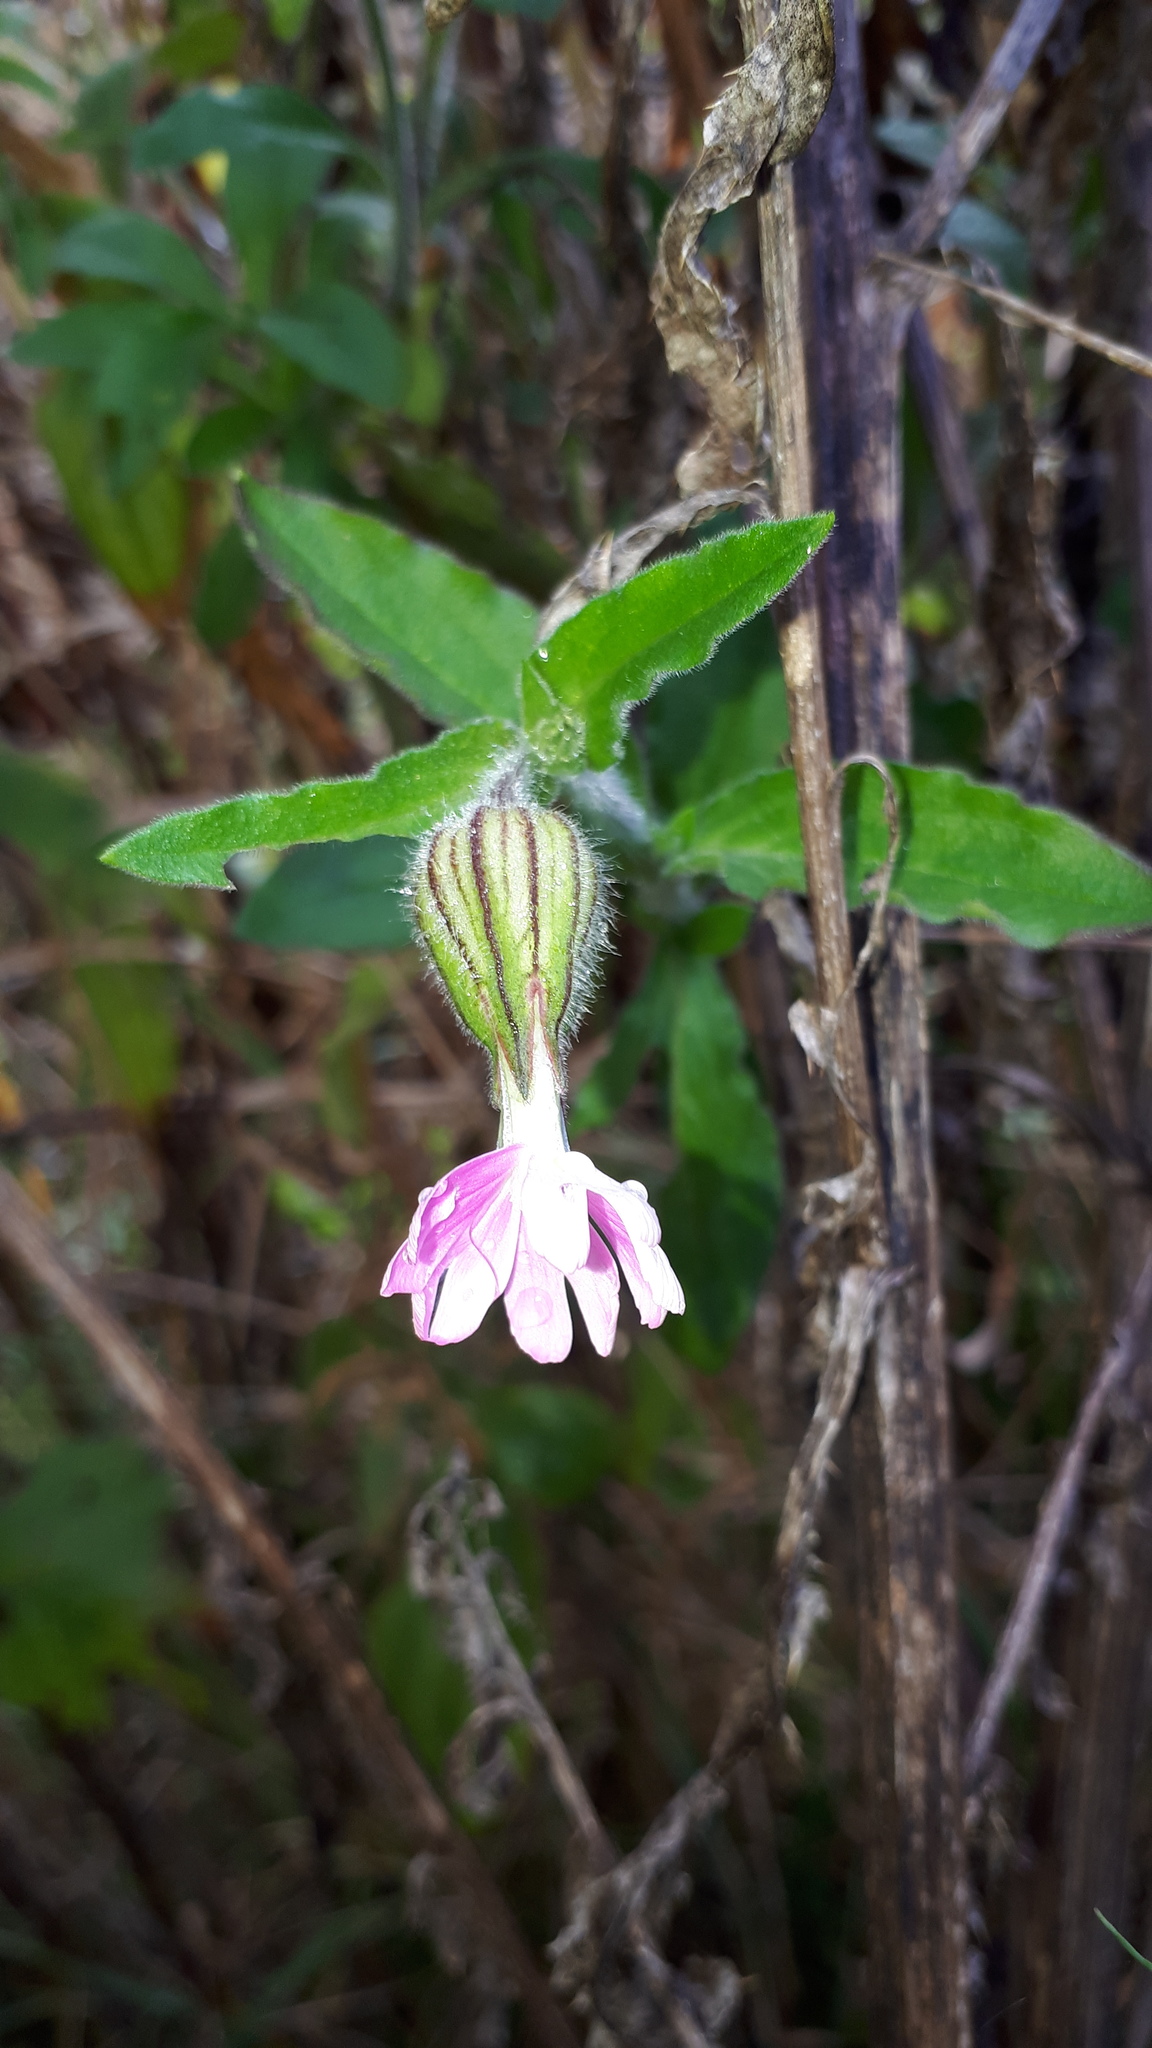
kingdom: Plantae
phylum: Tracheophyta
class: Magnoliopsida
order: Caryophyllales
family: Caryophyllaceae
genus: Silene
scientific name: Silene dioica
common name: Red campion
